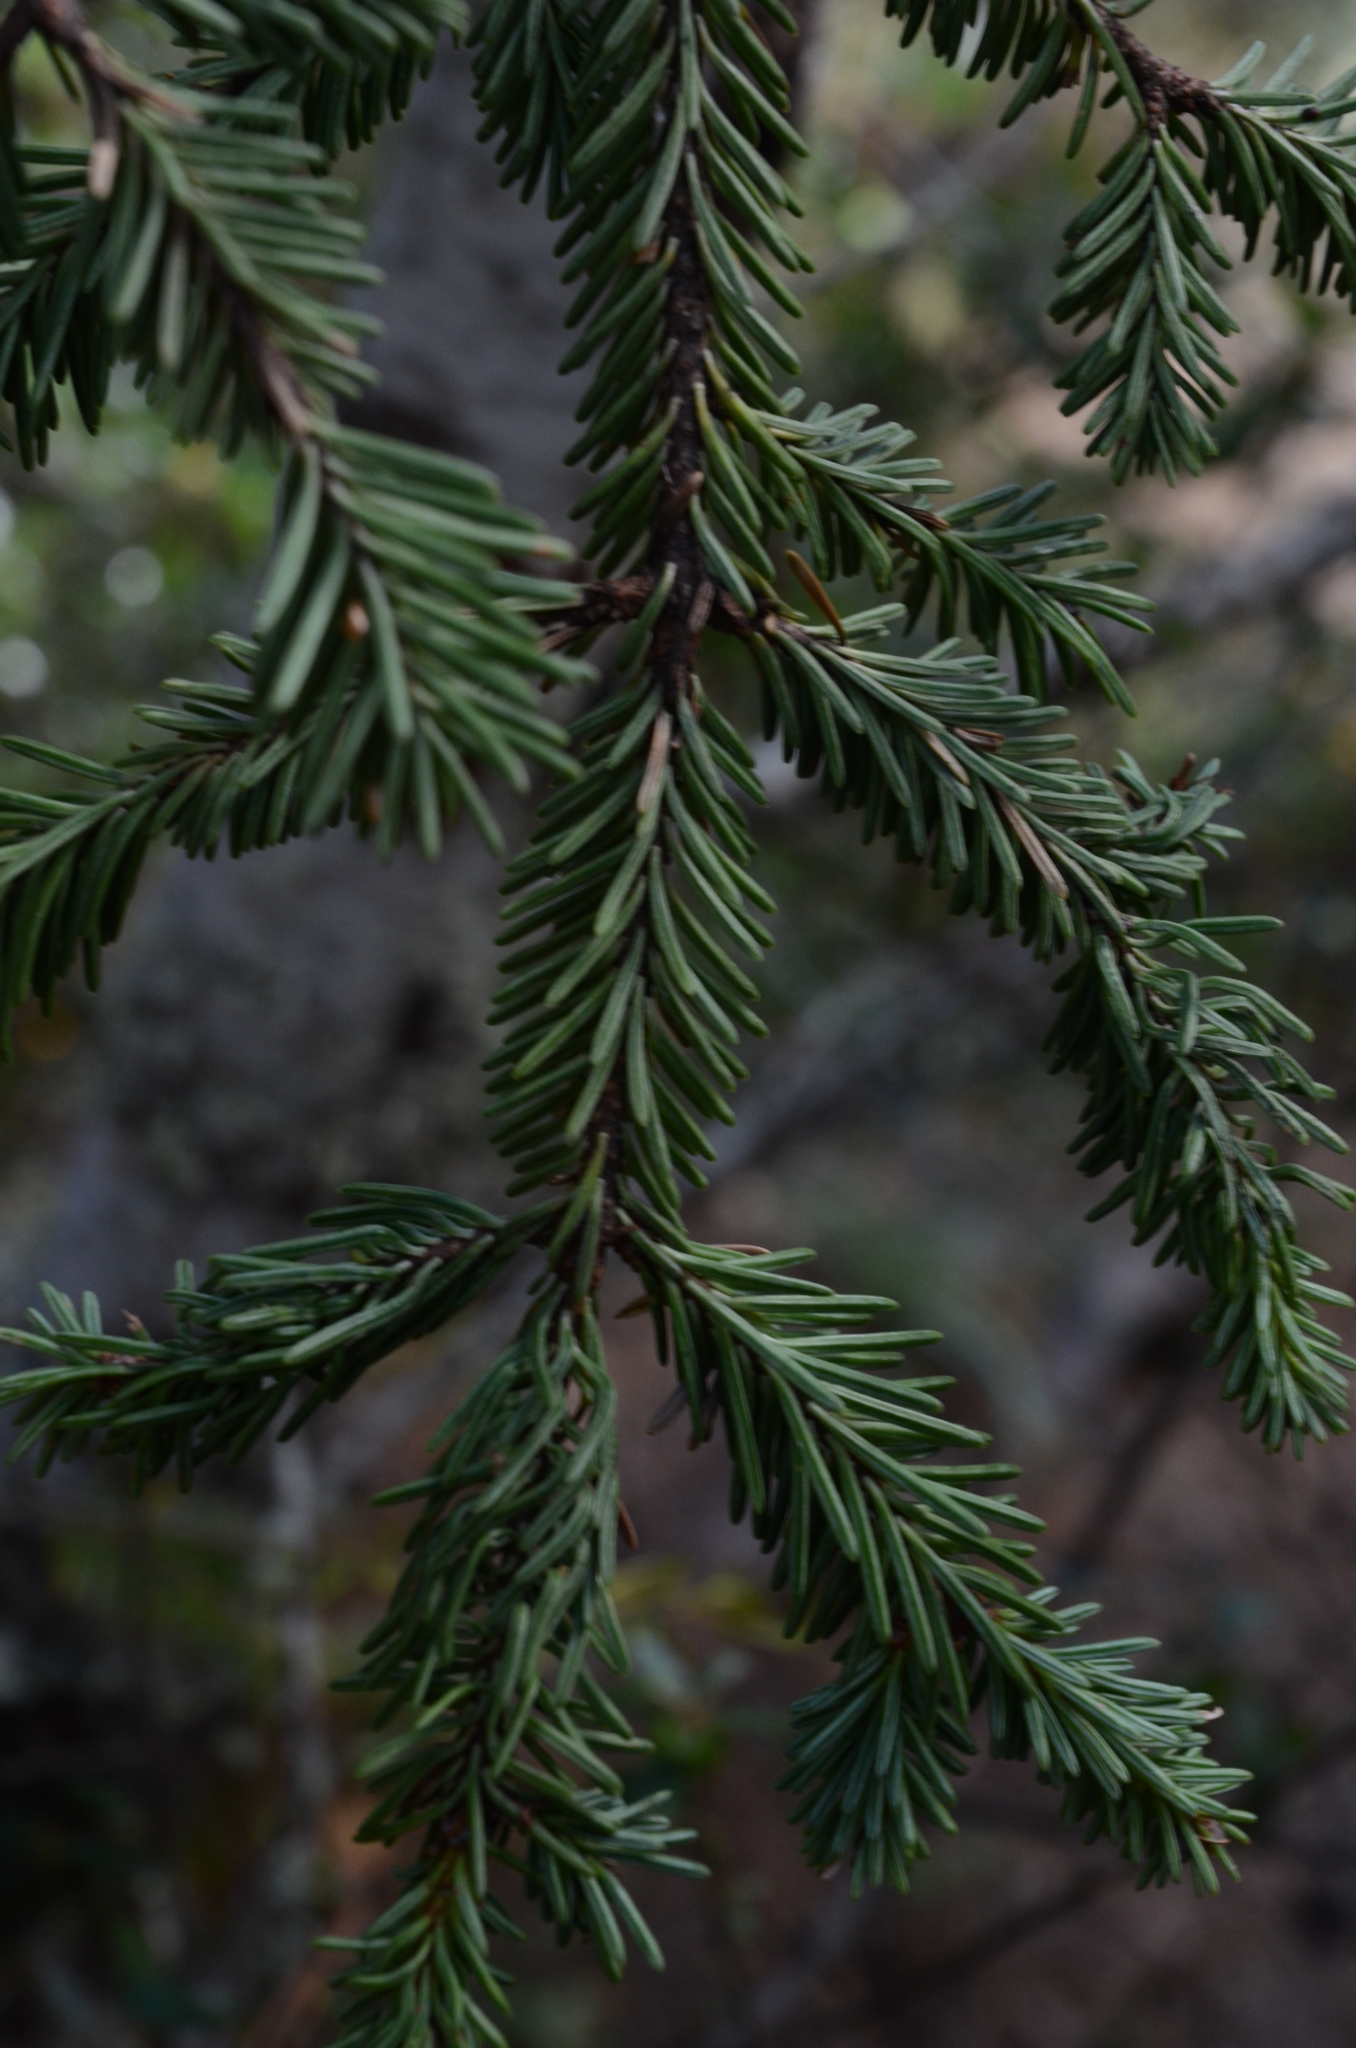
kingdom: Plantae
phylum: Tracheophyta
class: Pinopsida
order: Pinales
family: Pinaceae
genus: Abies
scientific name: Abies vejarii
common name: Vejar's fir
